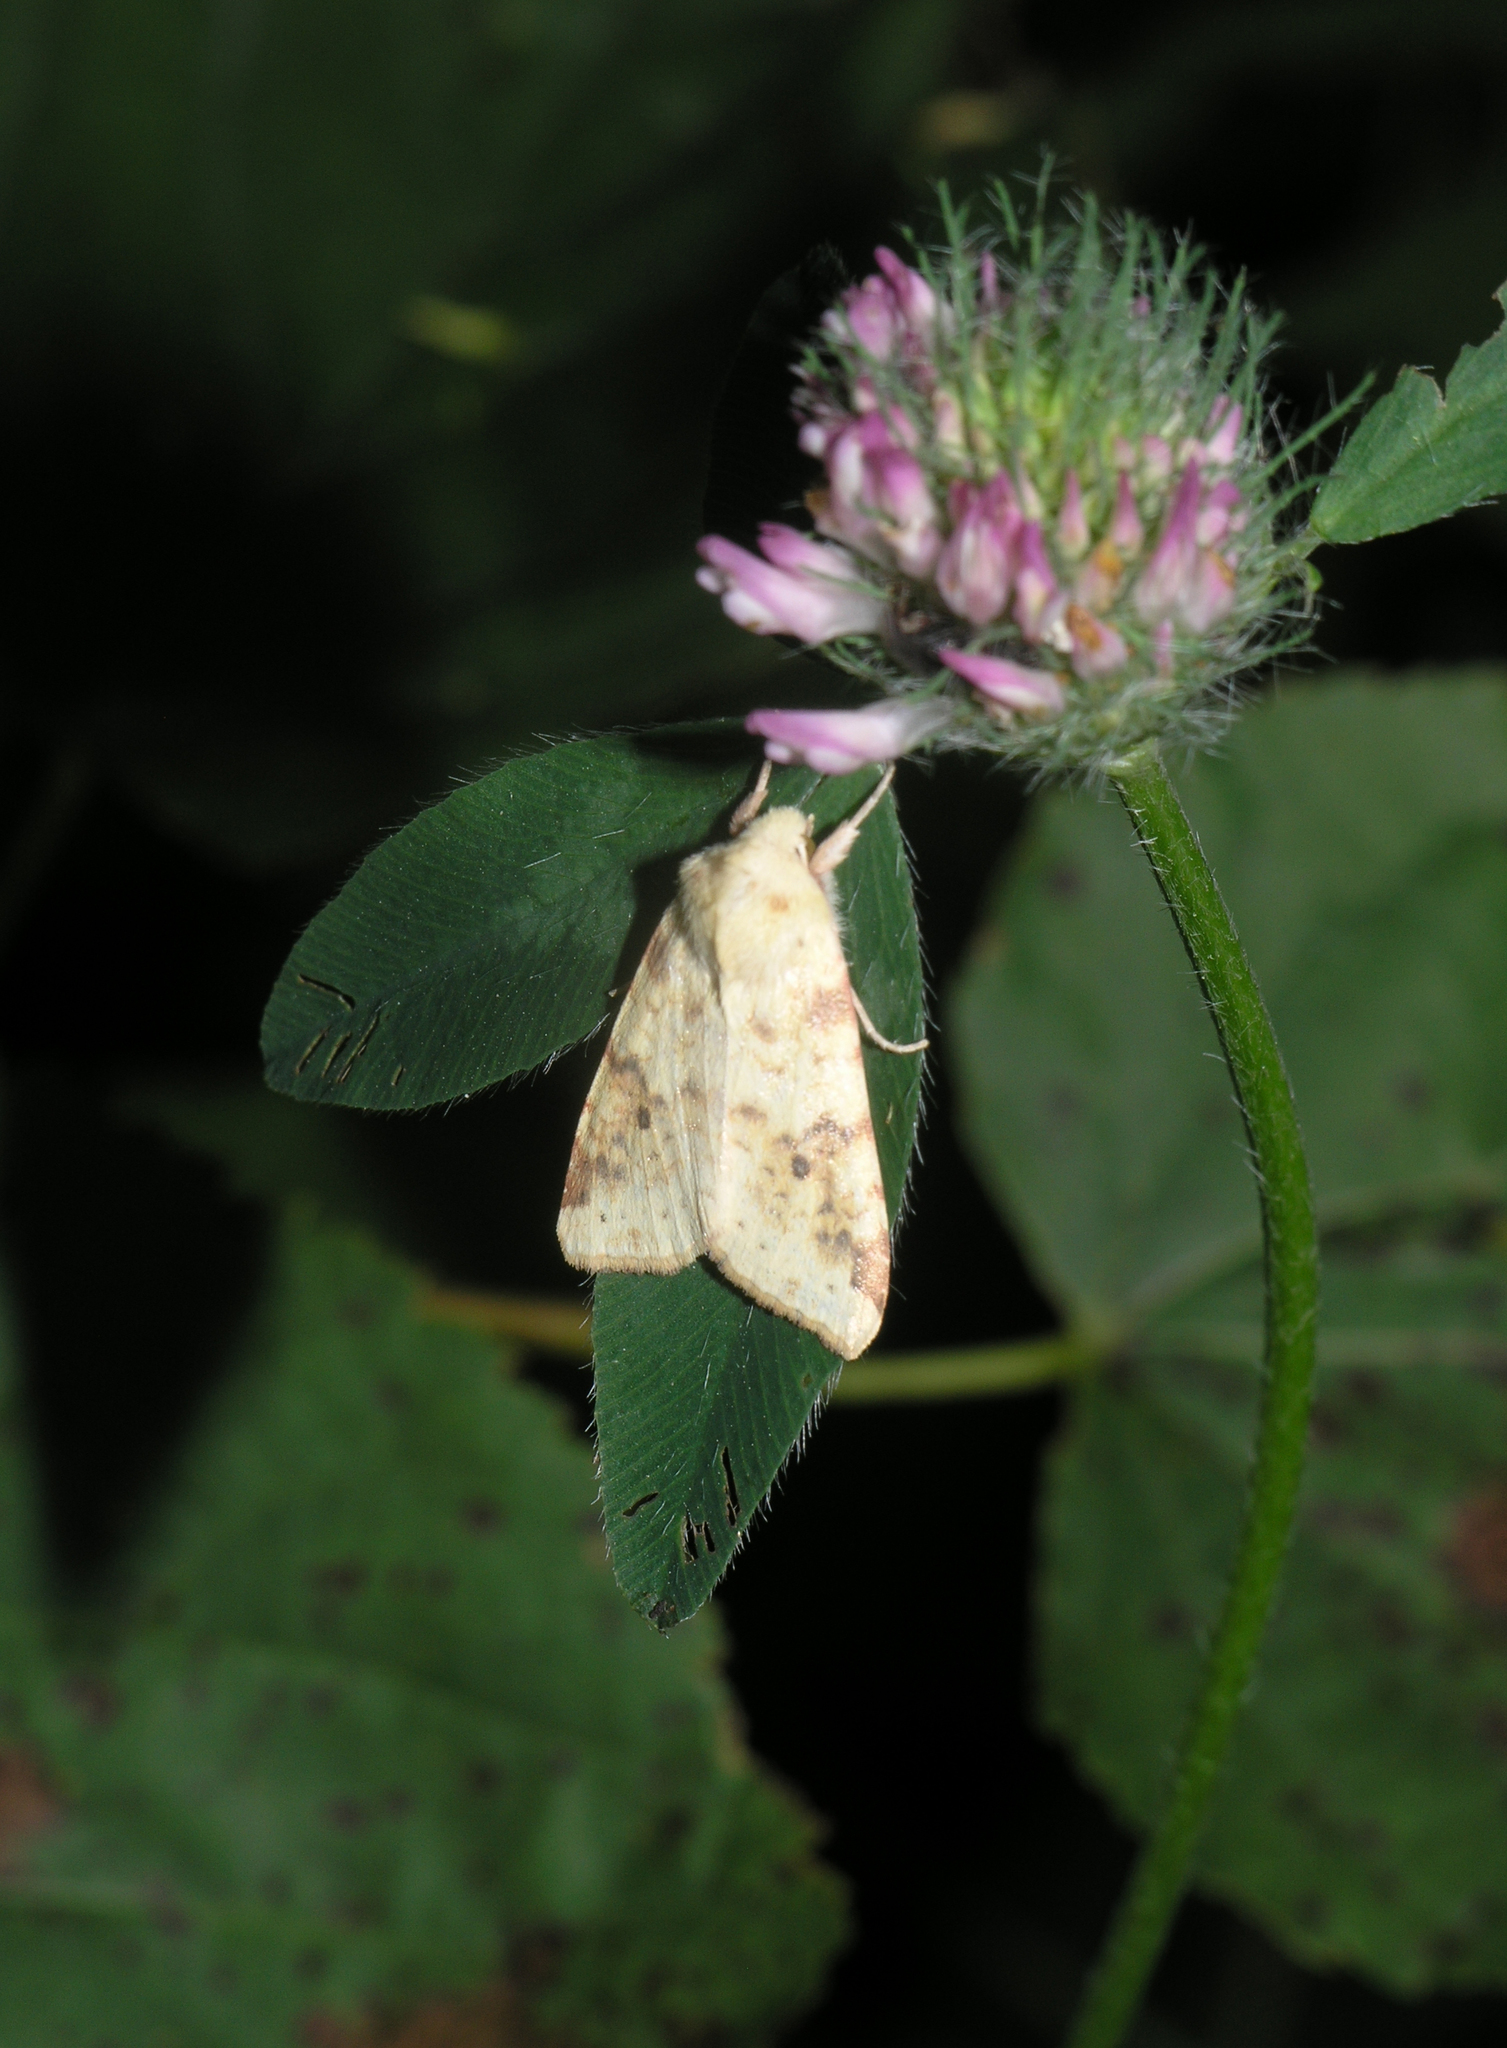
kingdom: Animalia
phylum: Arthropoda
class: Insecta
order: Lepidoptera
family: Noctuidae
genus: Xanthia
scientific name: Xanthia icteritia
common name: The sallow
